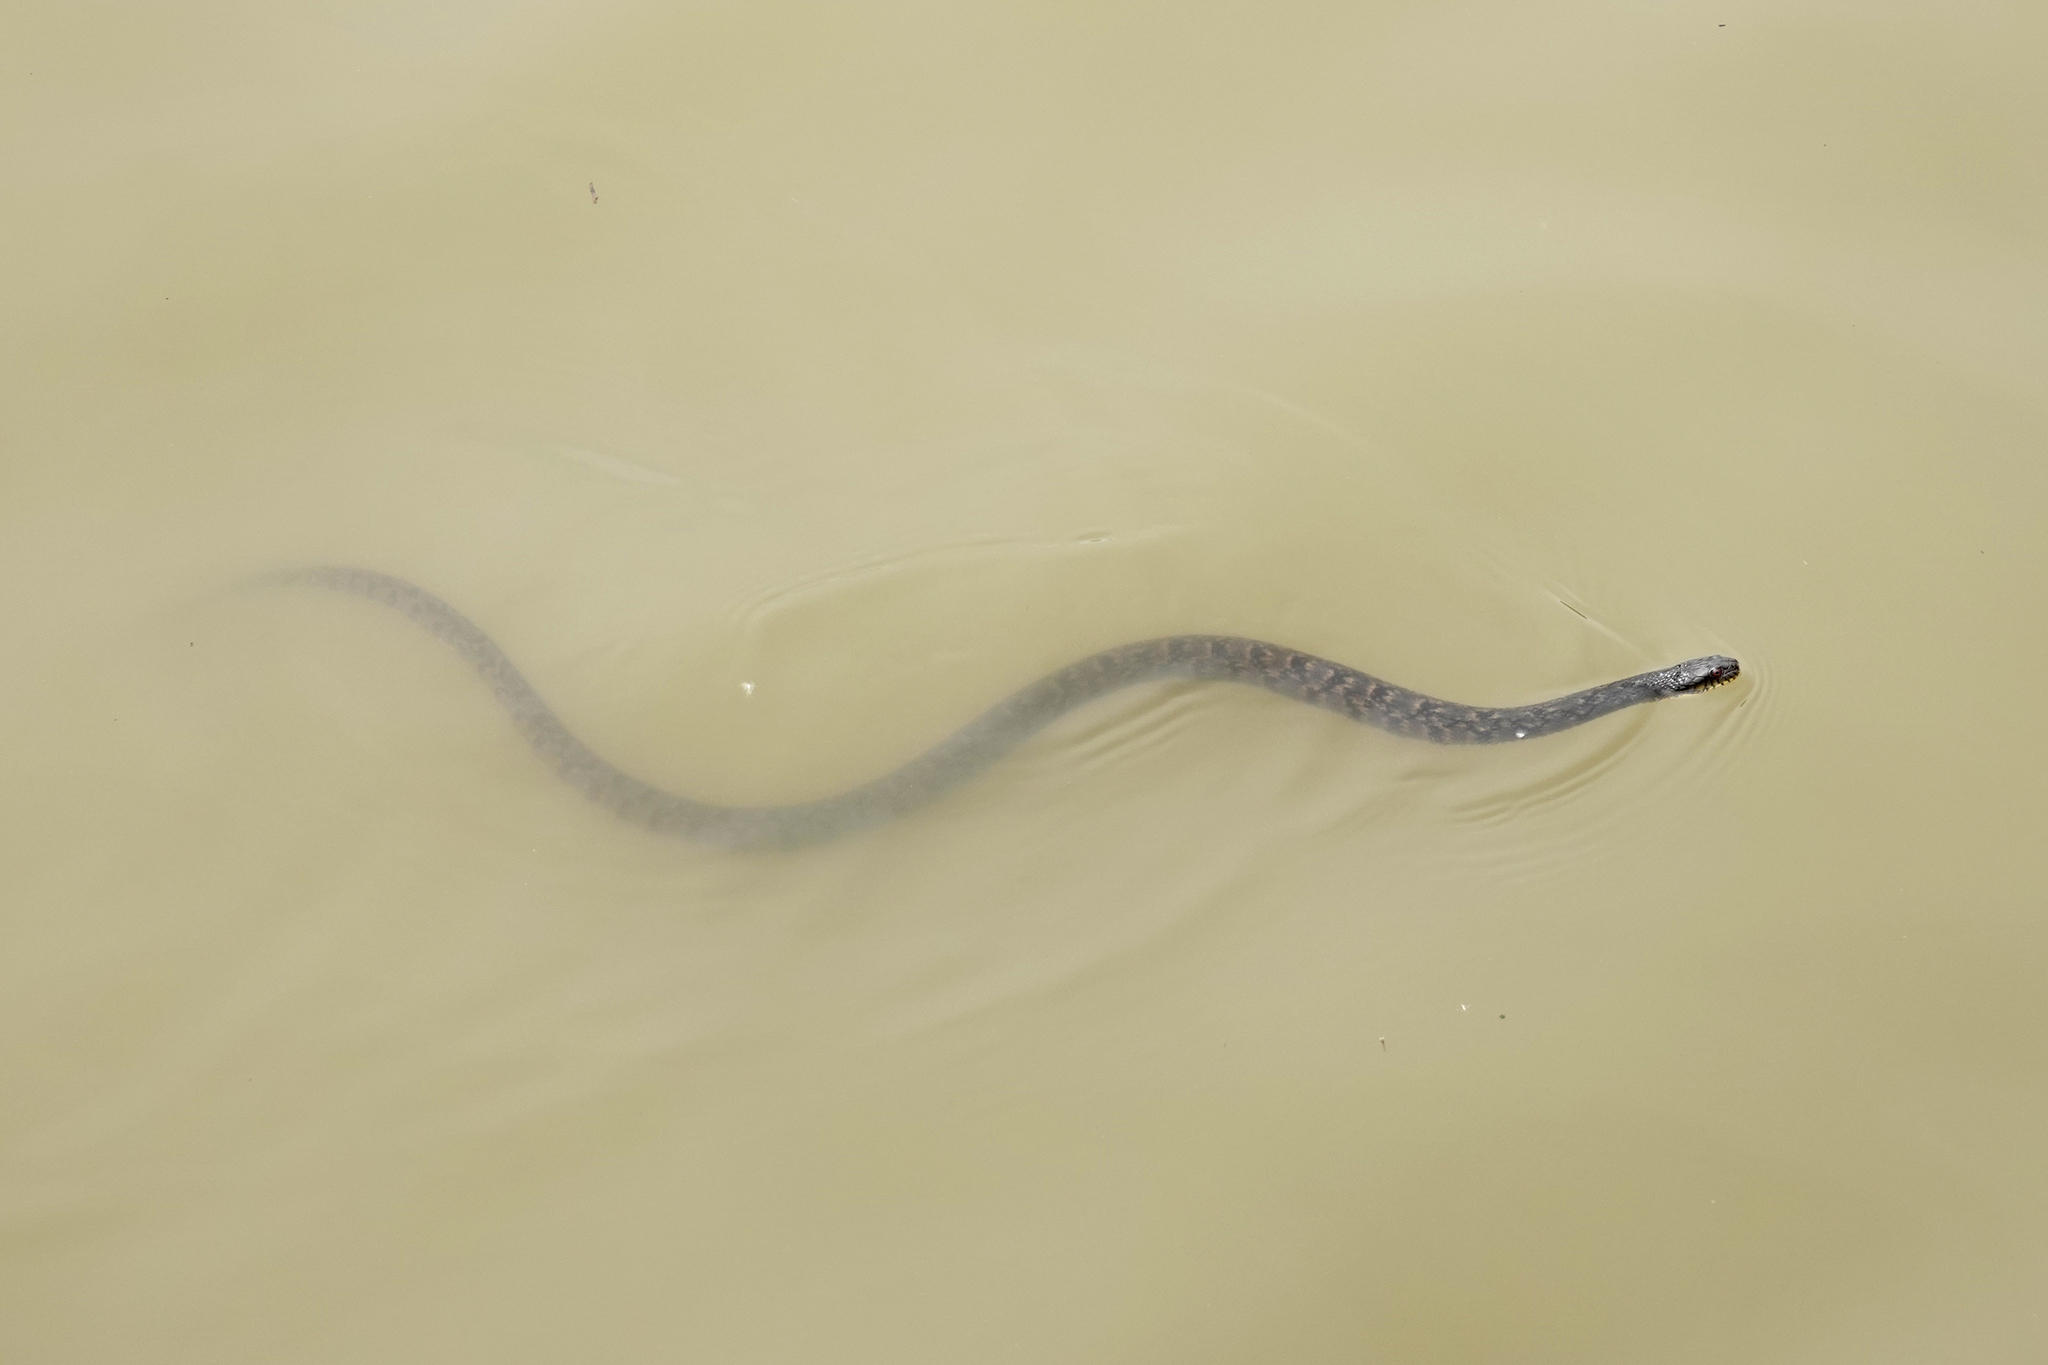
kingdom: Animalia
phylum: Chordata
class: Squamata
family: Colubridae
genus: Nerodia
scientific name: Nerodia rhombifer
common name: Diamondback water snake
